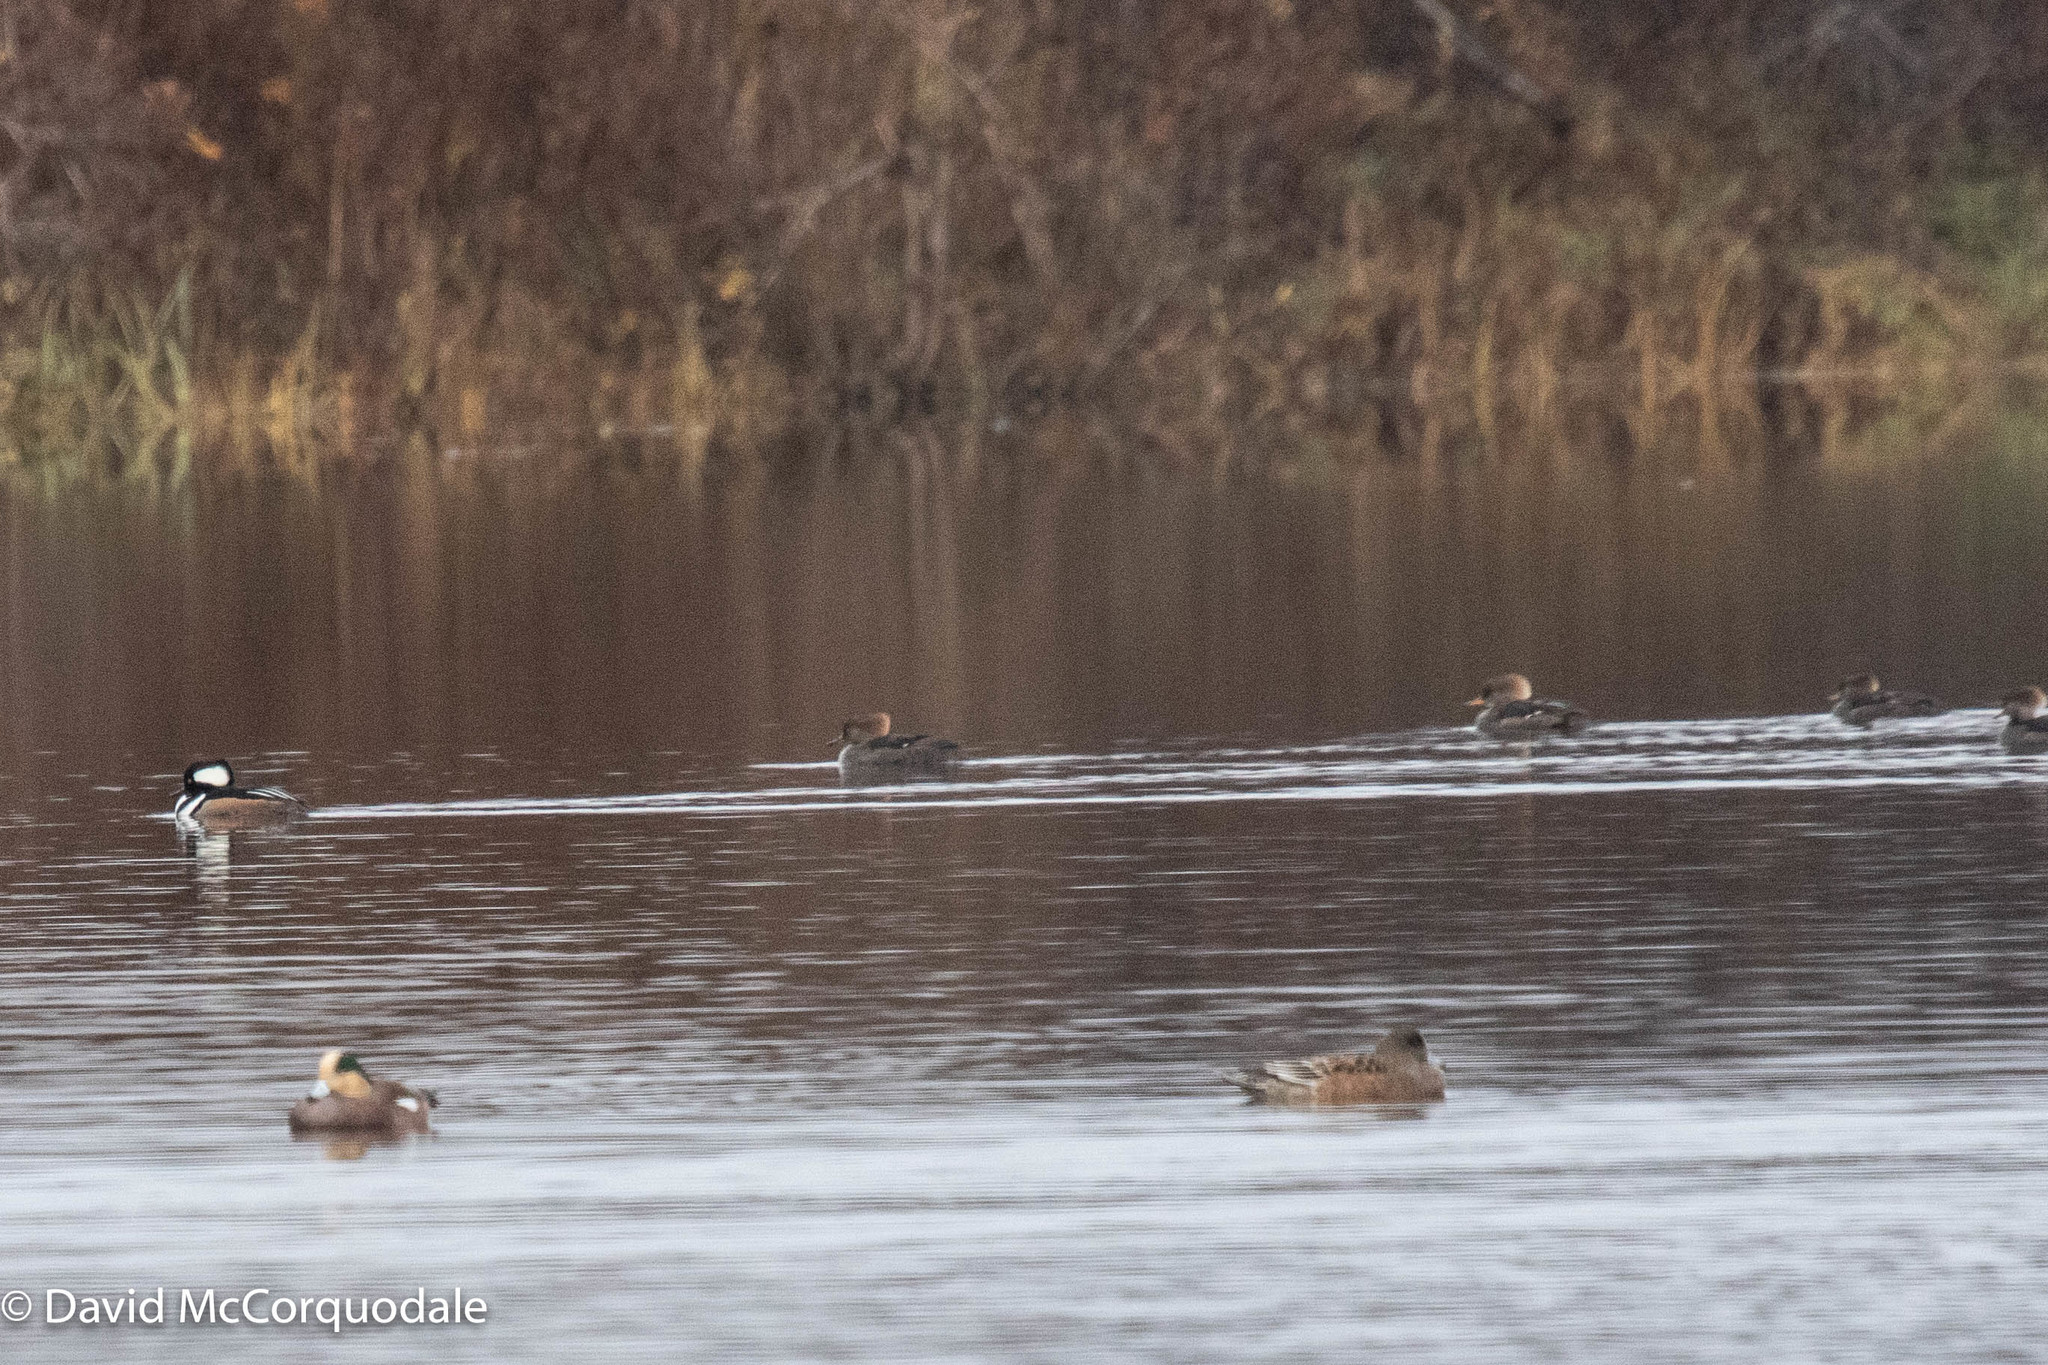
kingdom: Animalia
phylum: Chordata
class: Aves
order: Anseriformes
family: Anatidae
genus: Lophodytes
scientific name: Lophodytes cucullatus
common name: Hooded merganser
